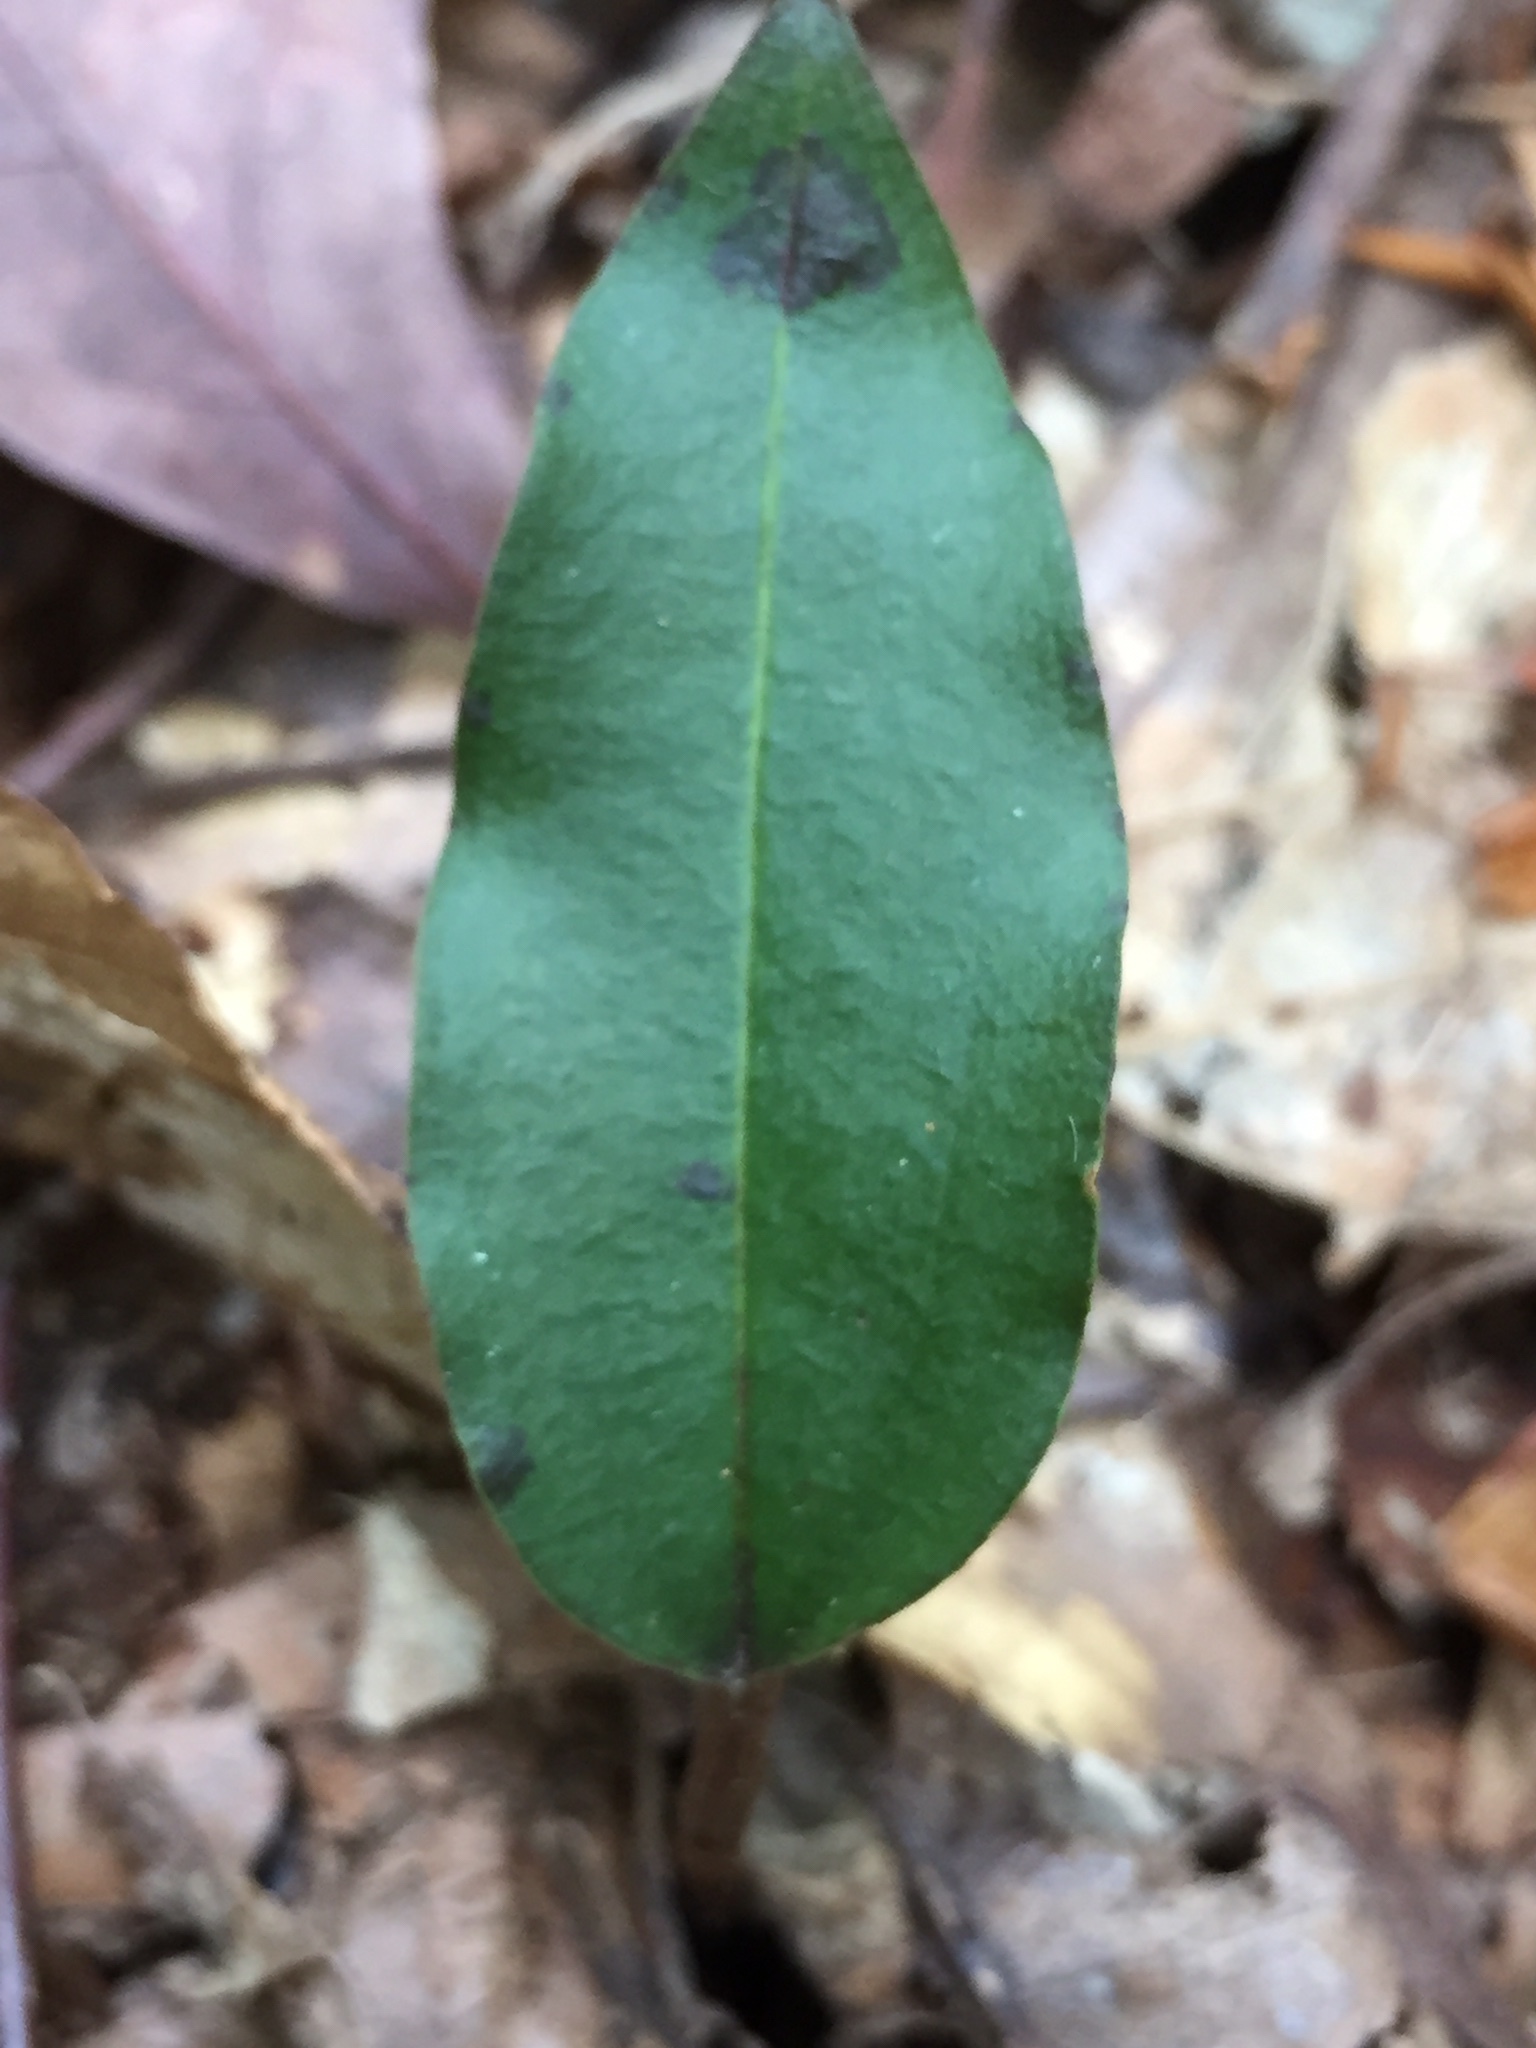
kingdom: Plantae
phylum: Tracheophyta
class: Liliopsida
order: Asparagales
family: Orchidaceae
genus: Tipularia
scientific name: Tipularia discolor
